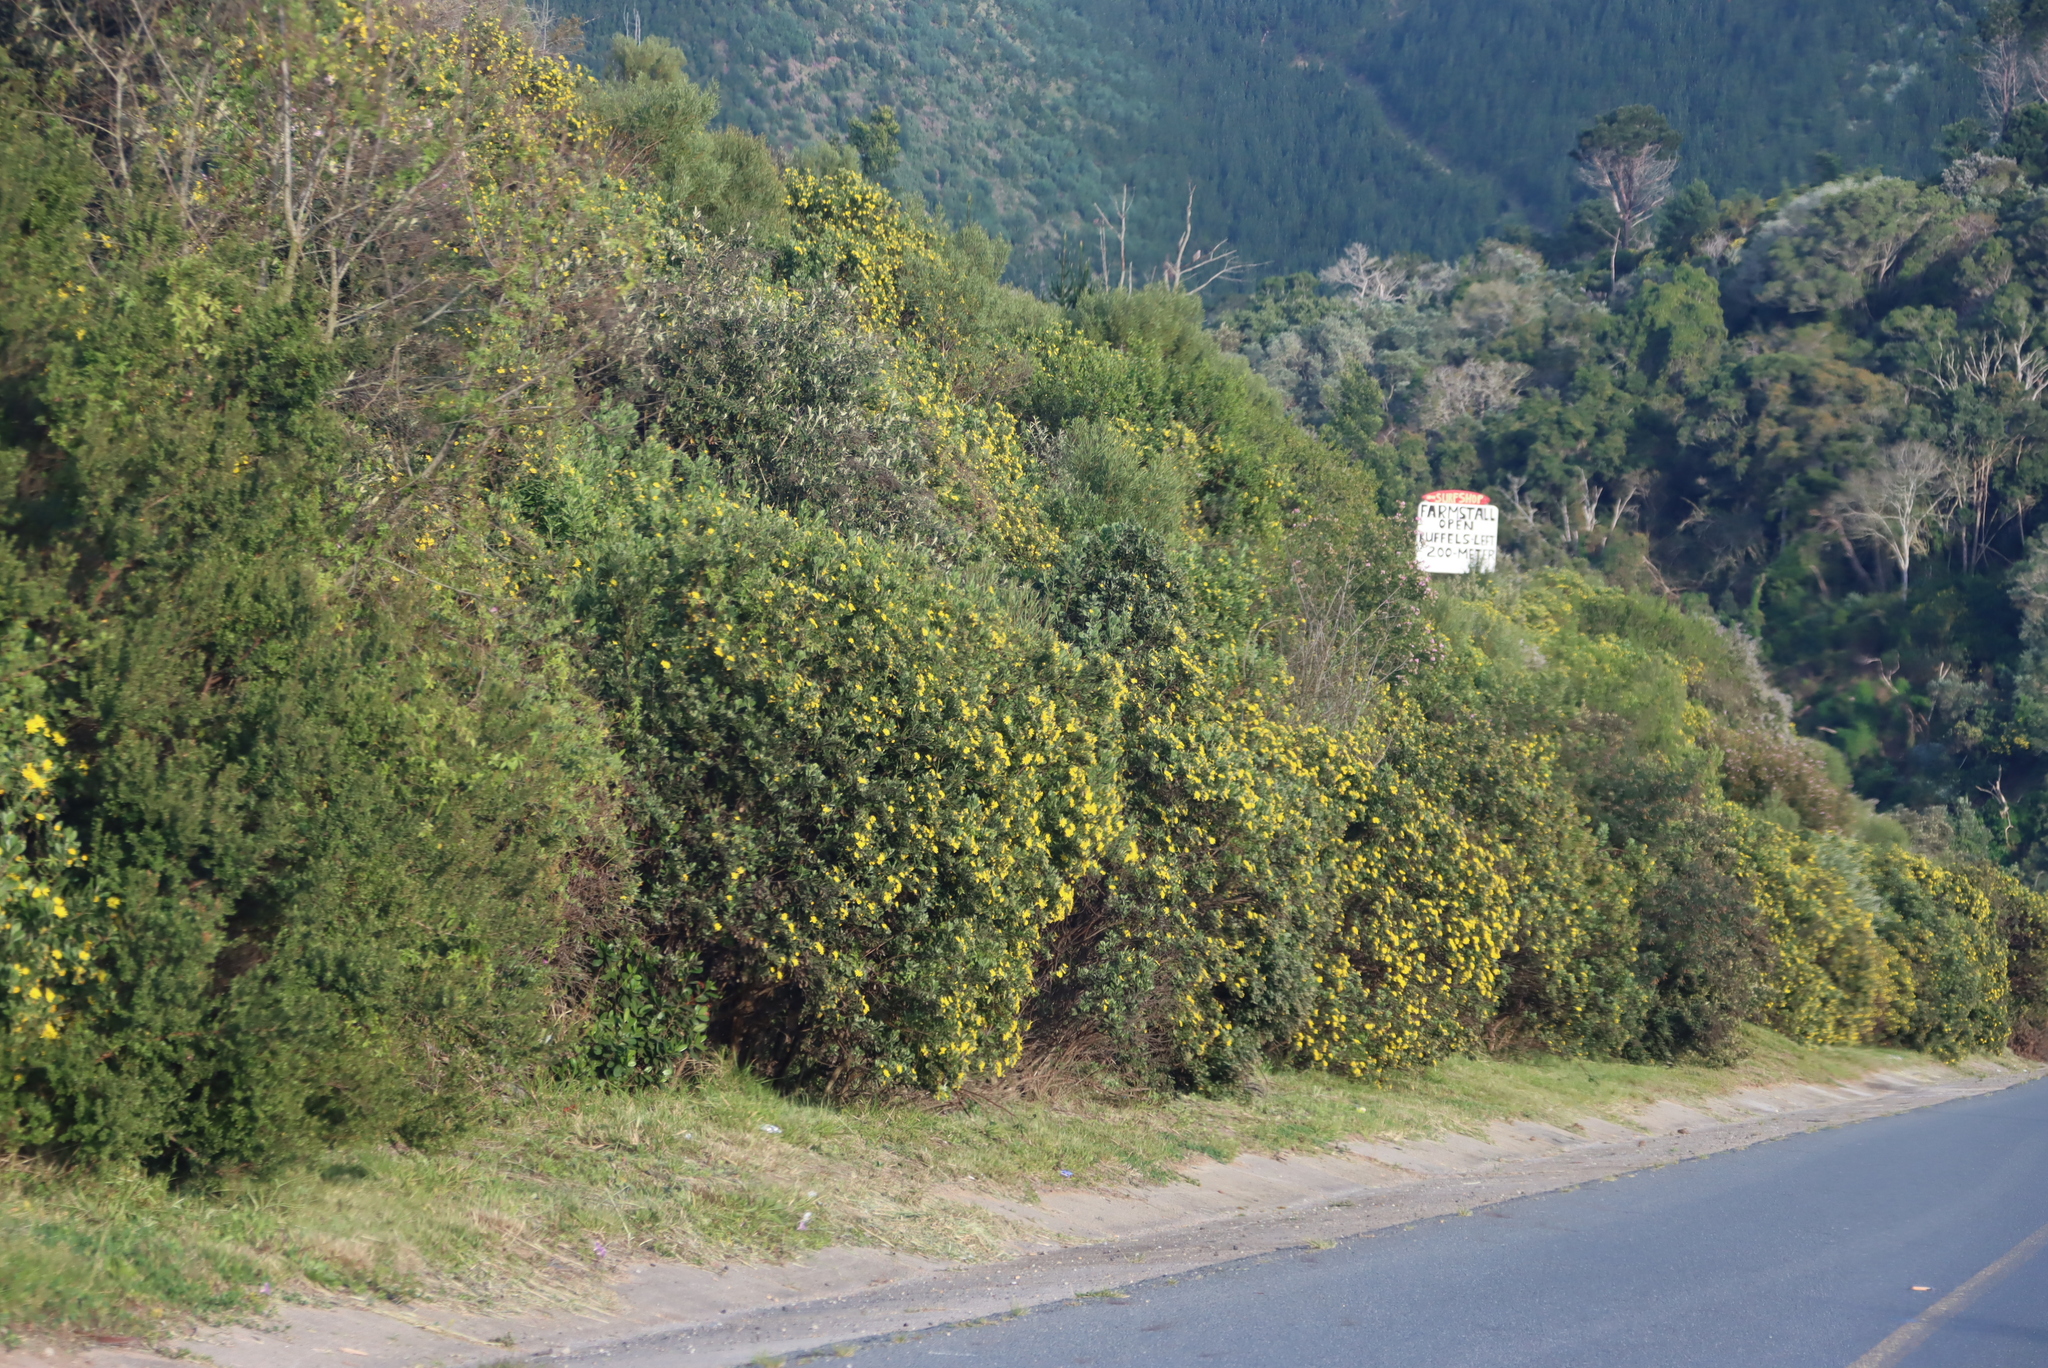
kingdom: Plantae
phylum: Tracheophyta
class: Magnoliopsida
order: Asterales
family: Asteraceae
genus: Osteospermum
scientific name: Osteospermum moniliferum
